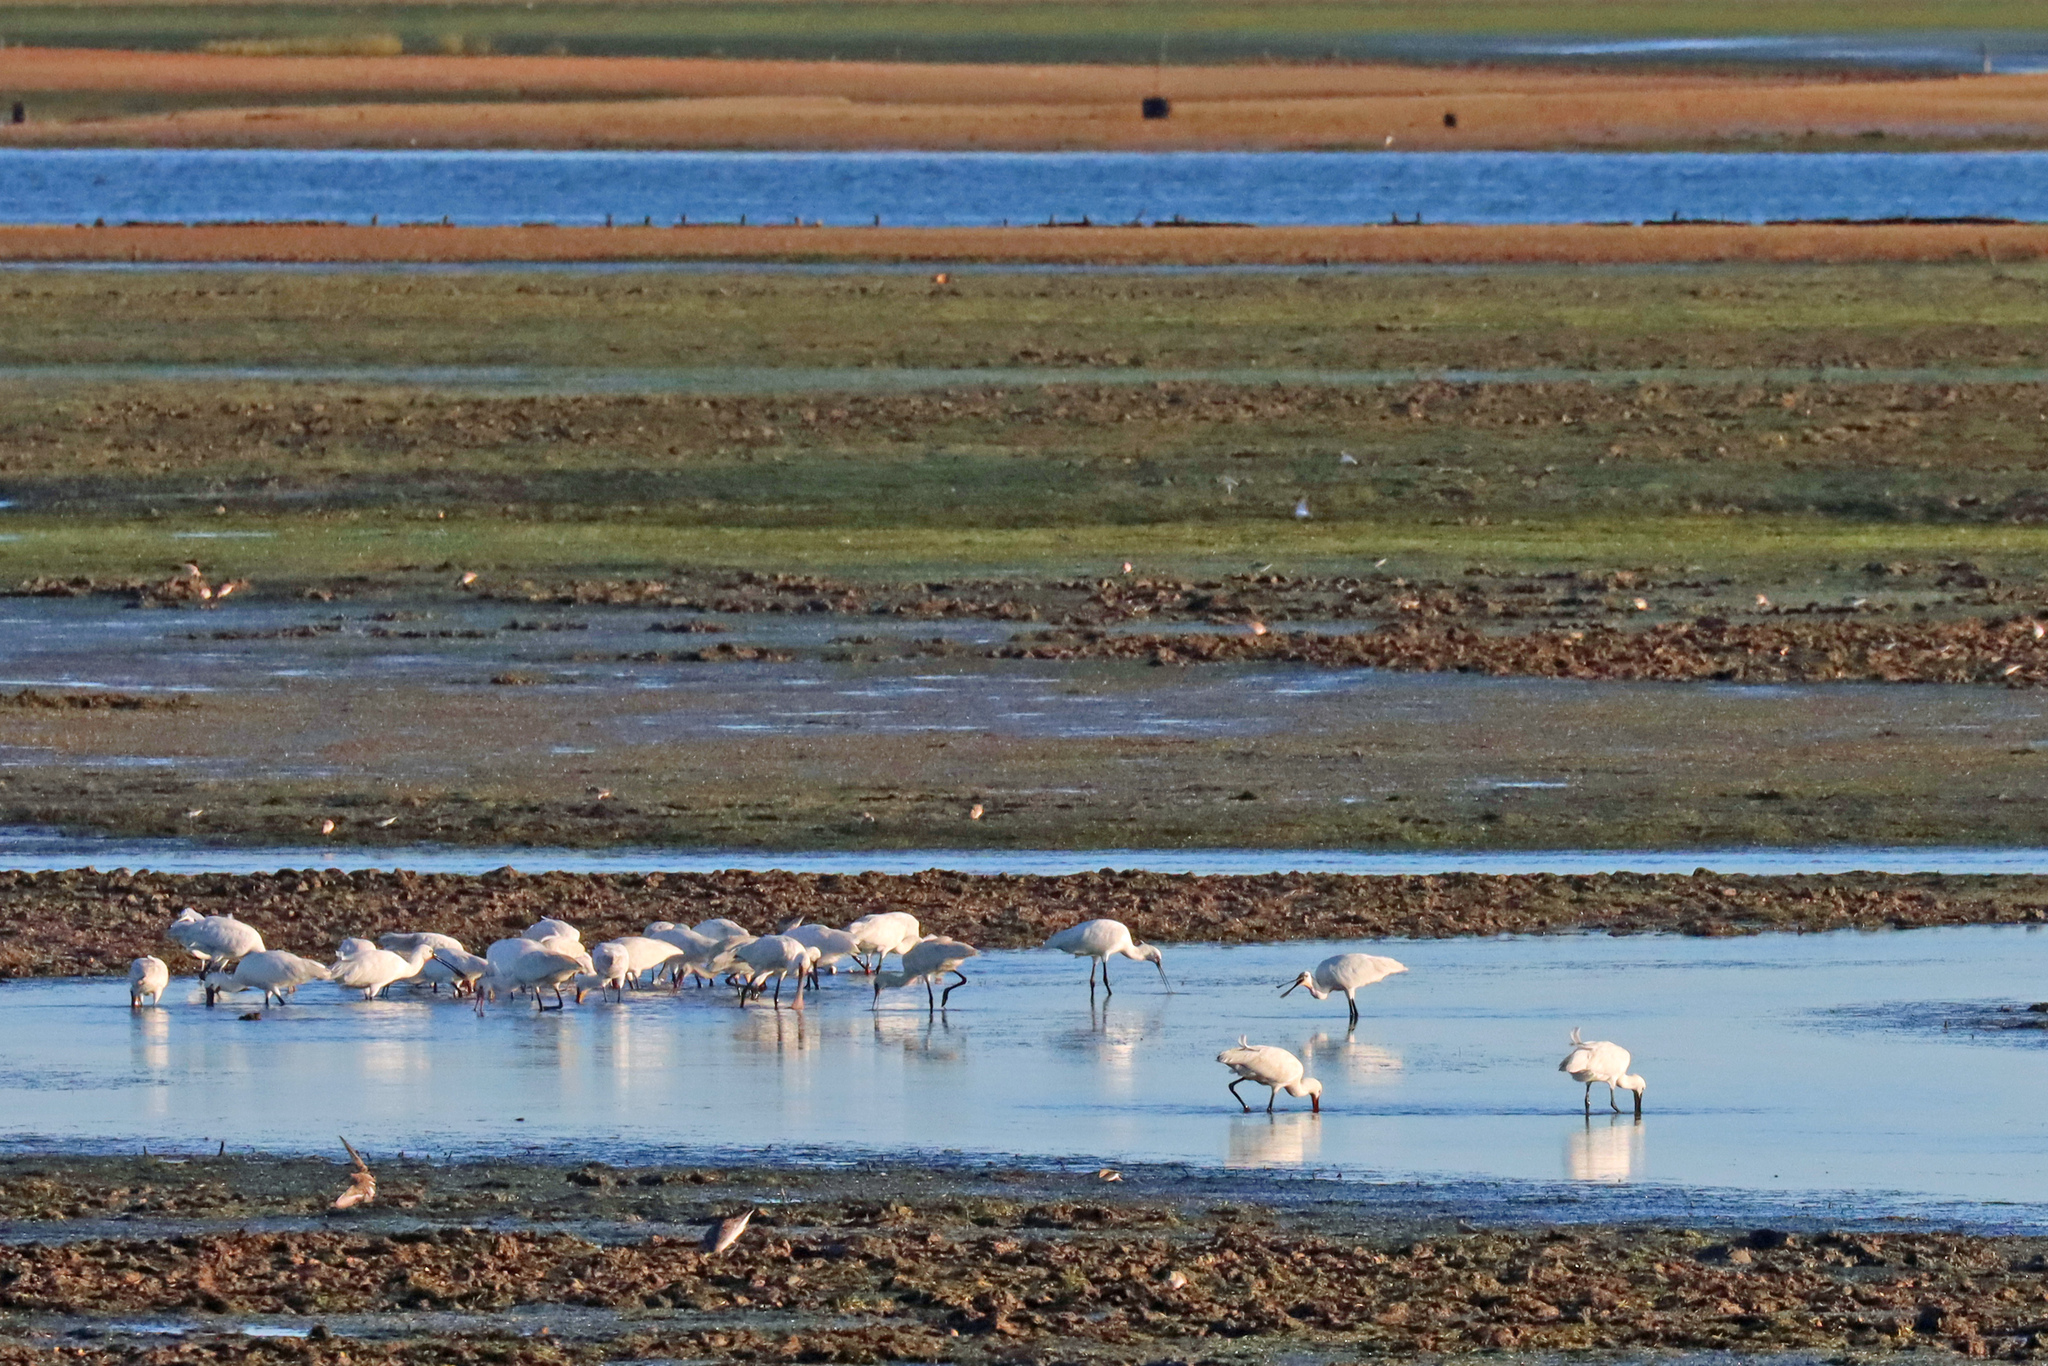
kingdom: Animalia
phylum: Chordata
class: Aves
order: Pelecaniformes
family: Threskiornithidae
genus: Platalea
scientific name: Platalea leucorodia
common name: Eurasian spoonbill
